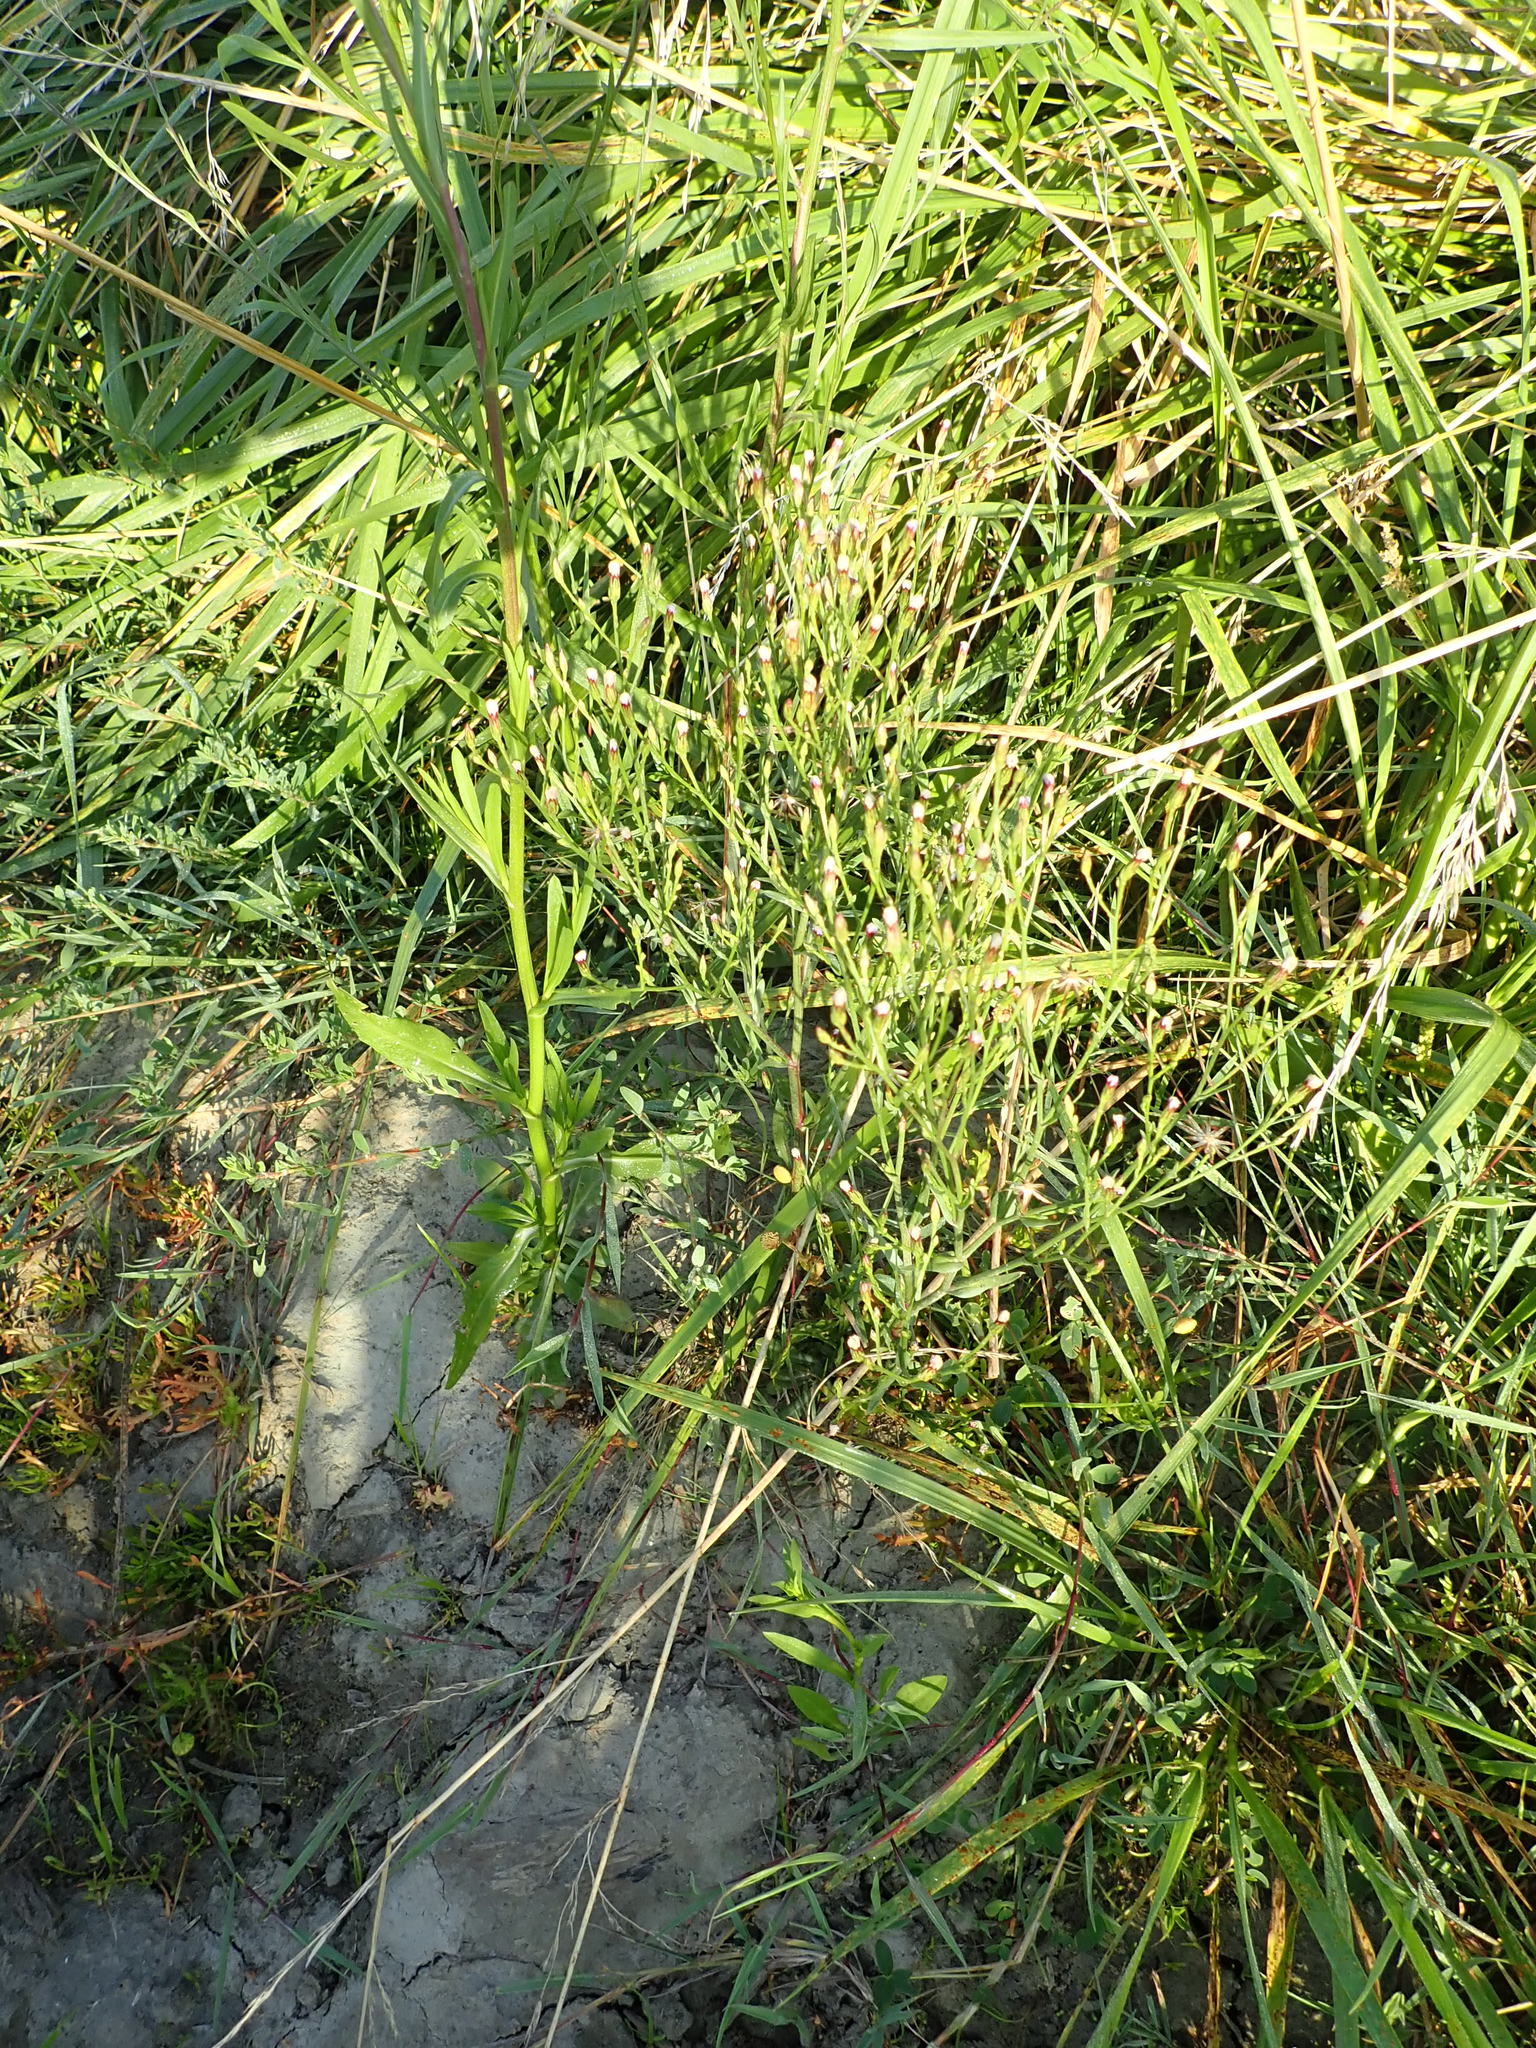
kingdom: Plantae
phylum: Tracheophyta
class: Magnoliopsida
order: Asterales
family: Asteraceae
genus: Symphyotrichum
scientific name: Symphyotrichum subulatum
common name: Annual saltmarsh aster
